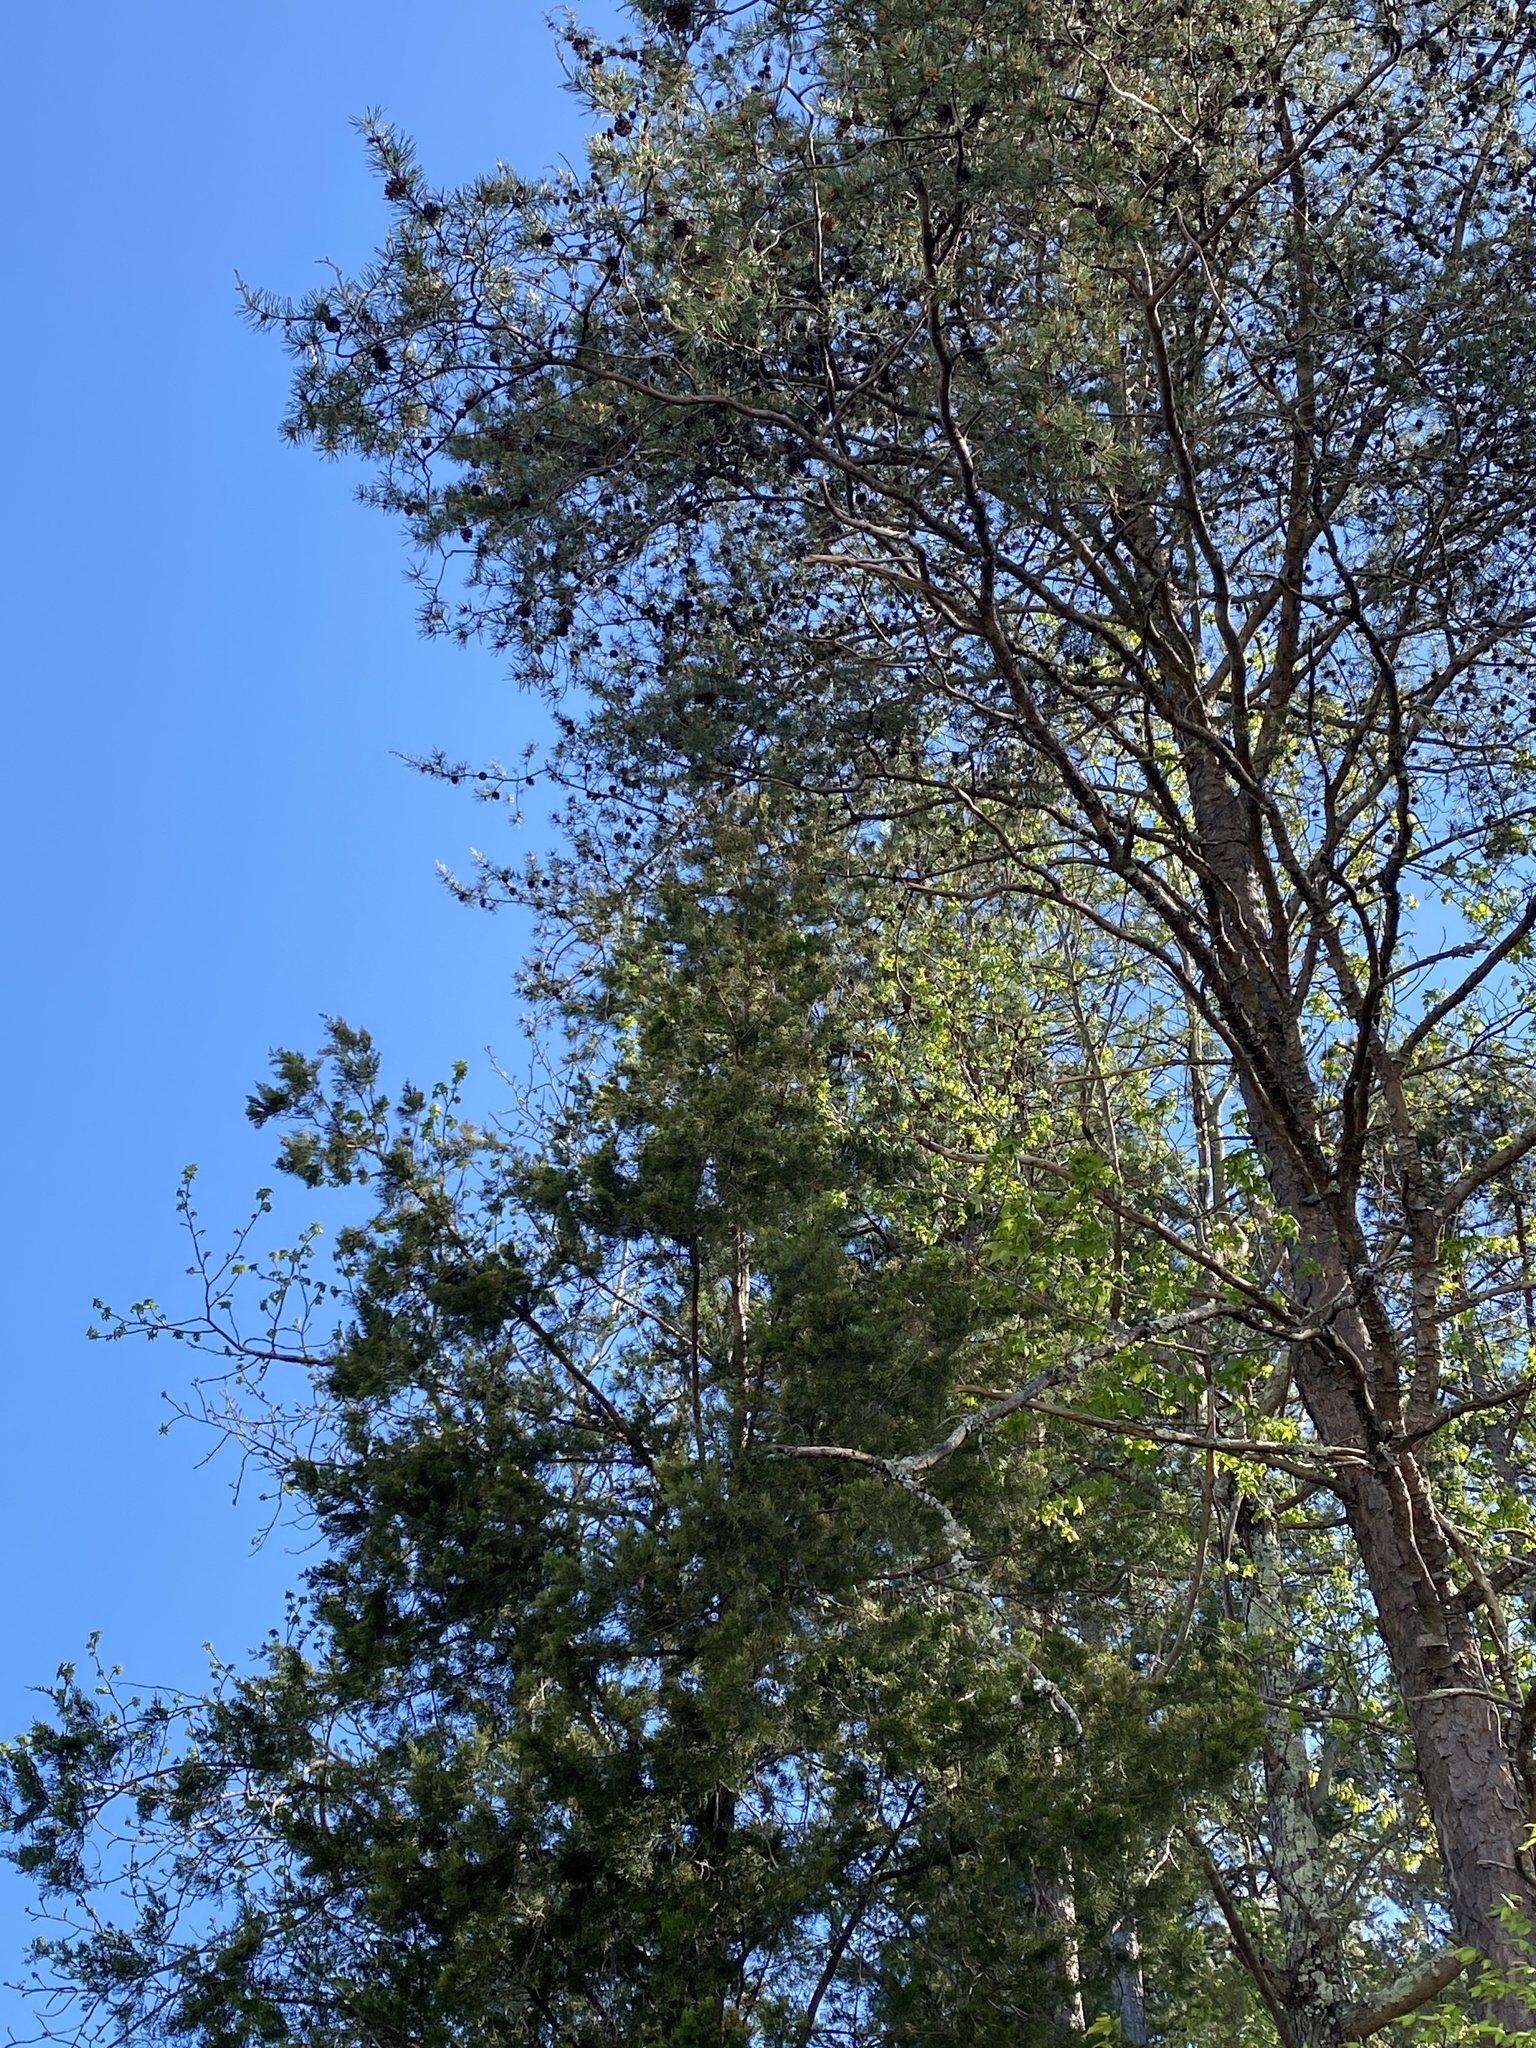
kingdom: Plantae
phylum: Tracheophyta
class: Pinopsida
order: Pinales
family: Pinaceae
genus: Pinus
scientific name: Pinus virginiana
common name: Scrub pine
